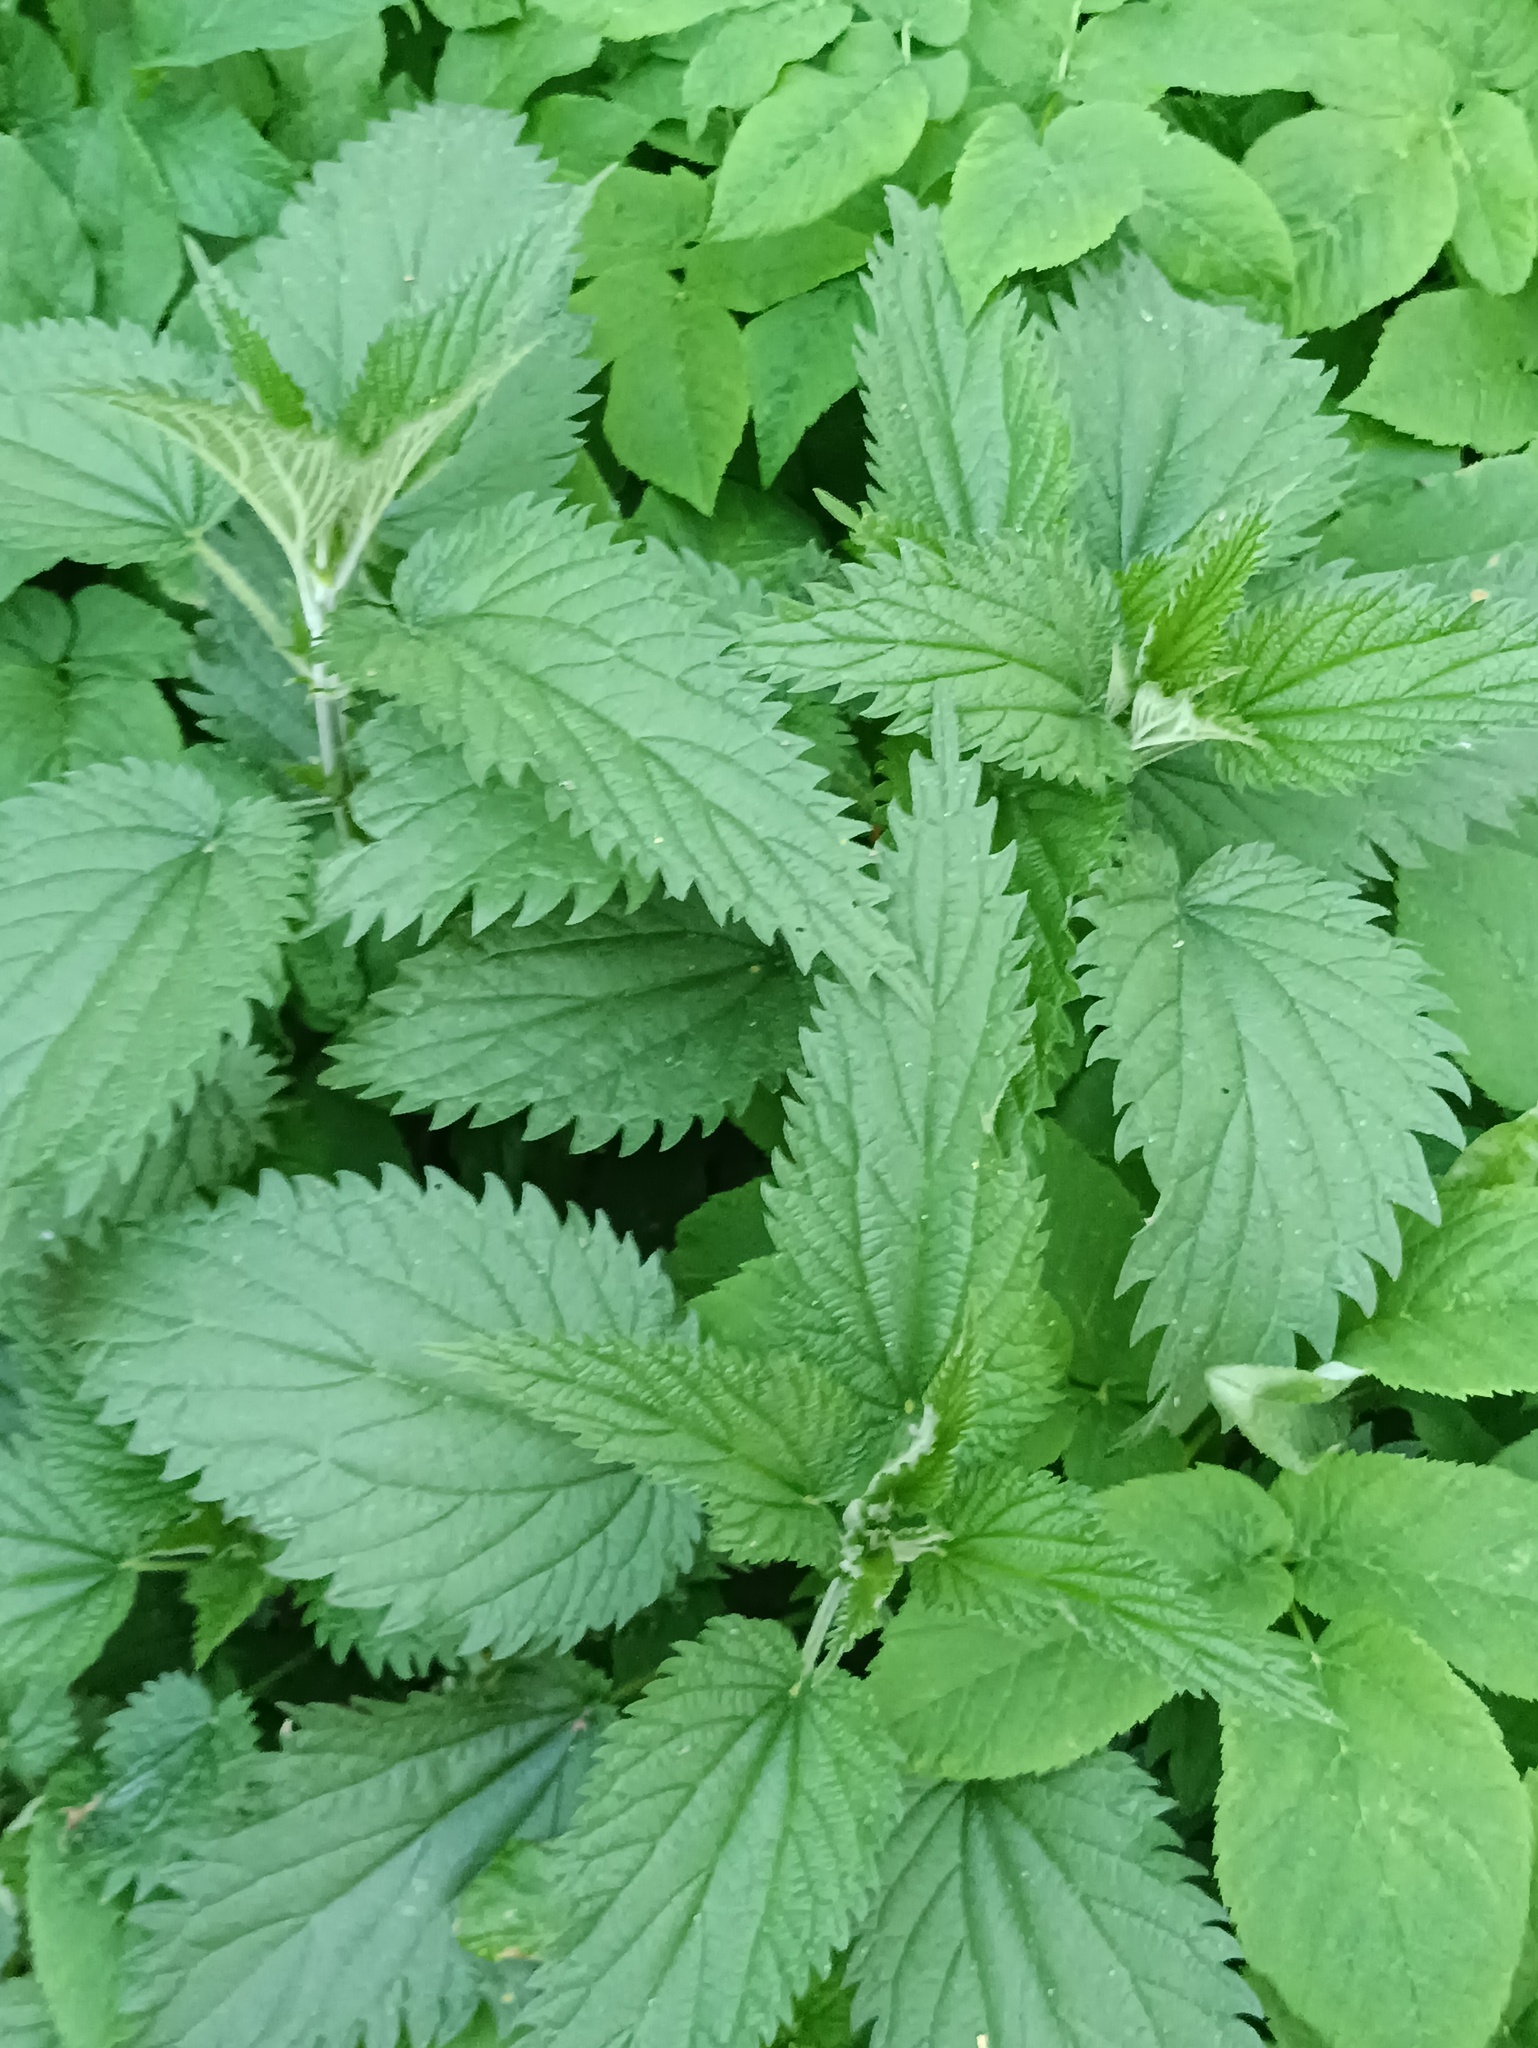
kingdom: Plantae
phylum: Tracheophyta
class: Magnoliopsida
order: Rosales
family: Urticaceae
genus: Urtica
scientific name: Urtica dioica
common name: Common nettle
